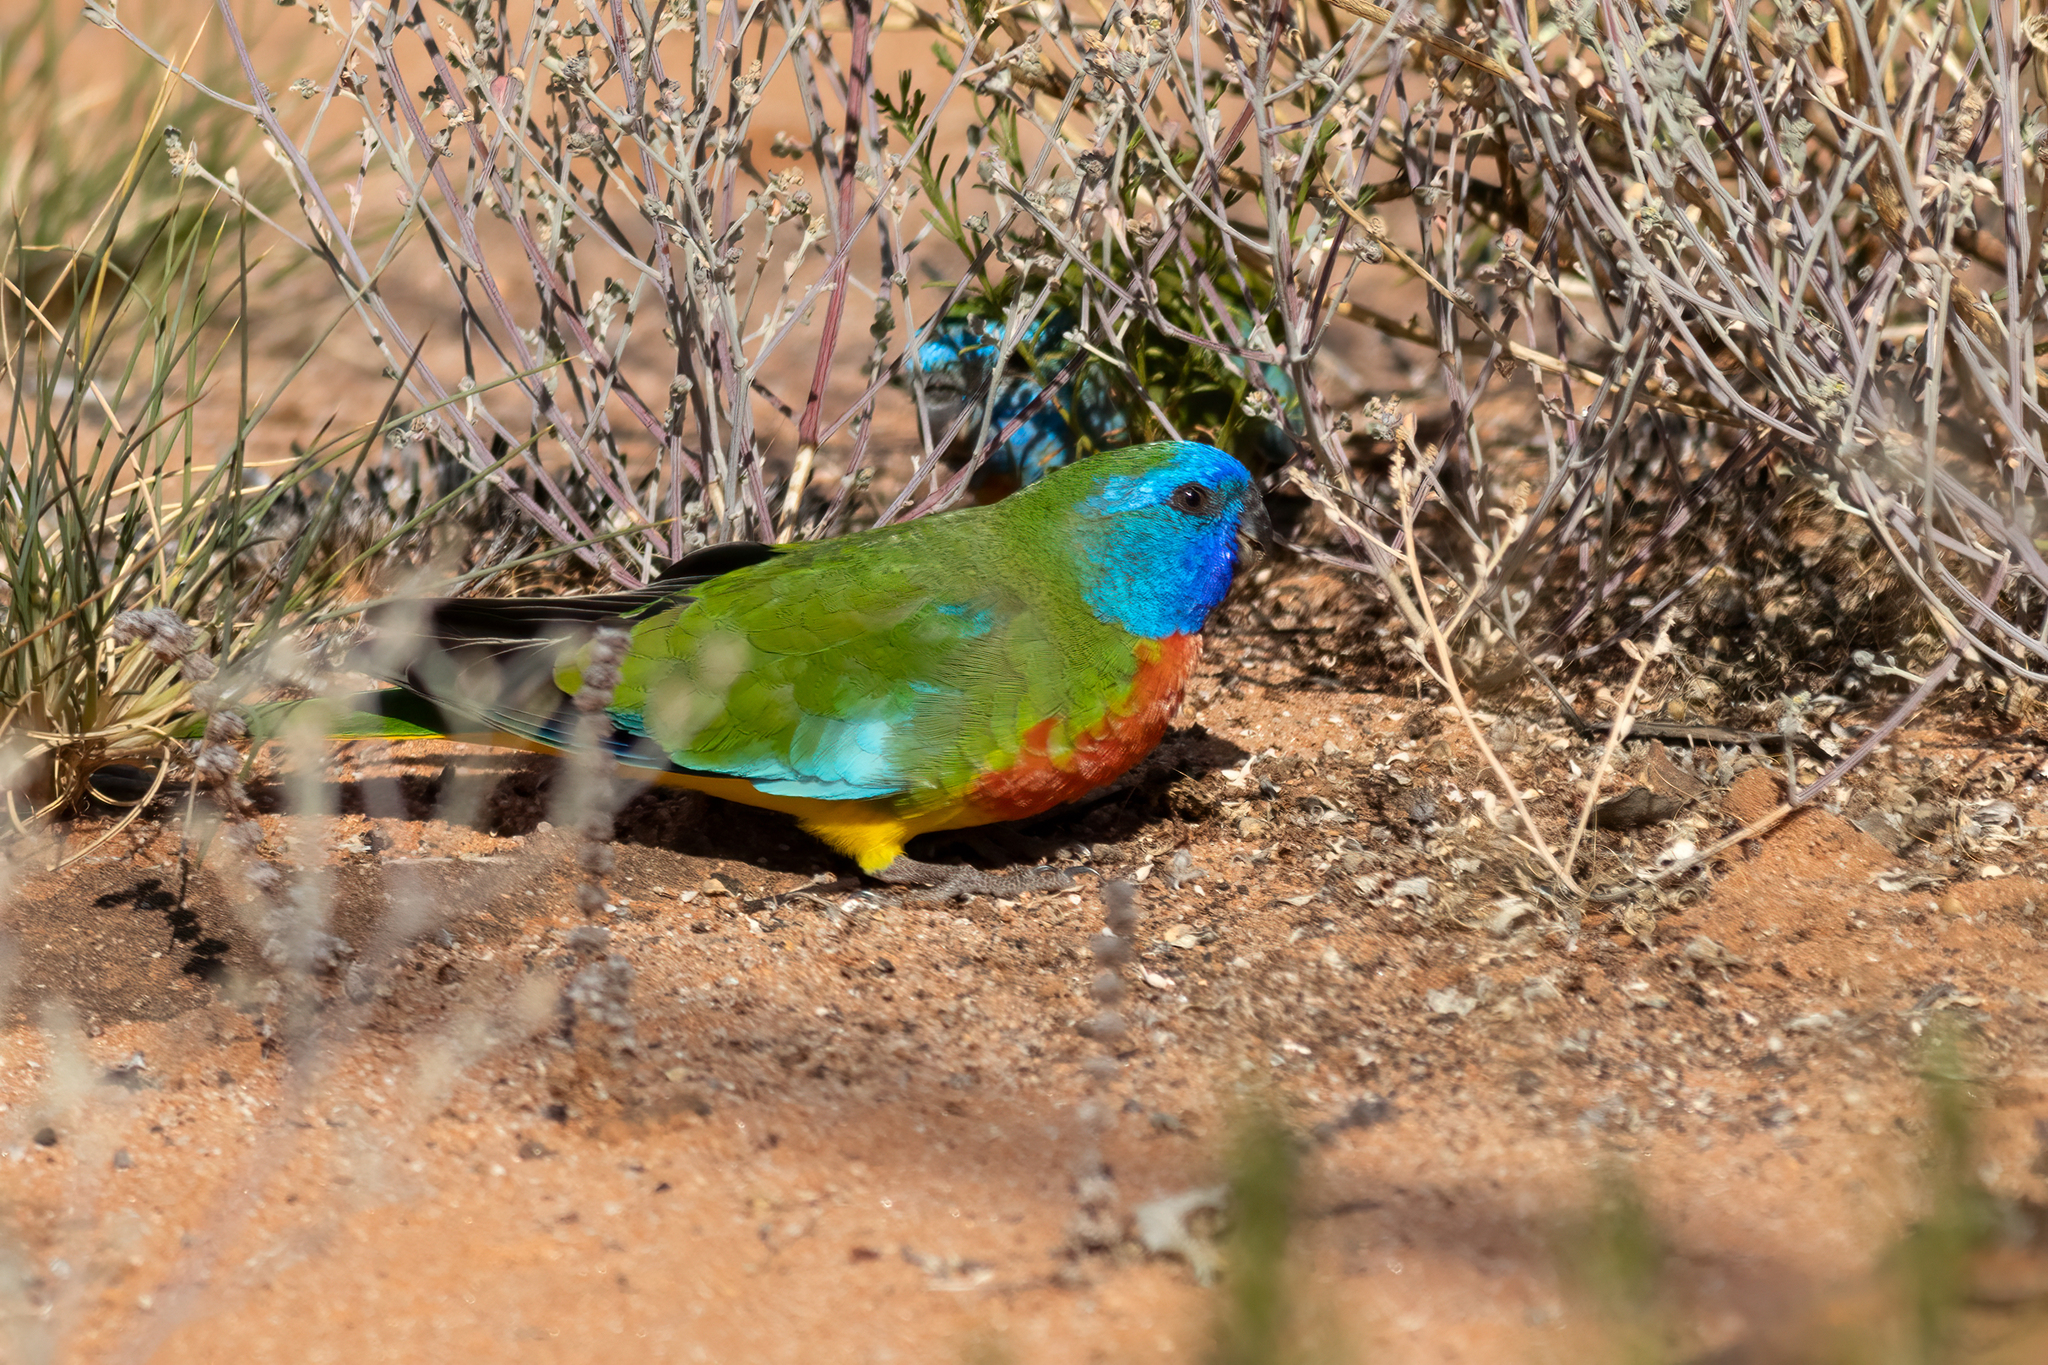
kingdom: Animalia
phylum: Chordata
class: Aves
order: Psittaciformes
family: Psittacidae
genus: Neophema
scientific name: Neophema splendida
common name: Scarlet-chested parrot
